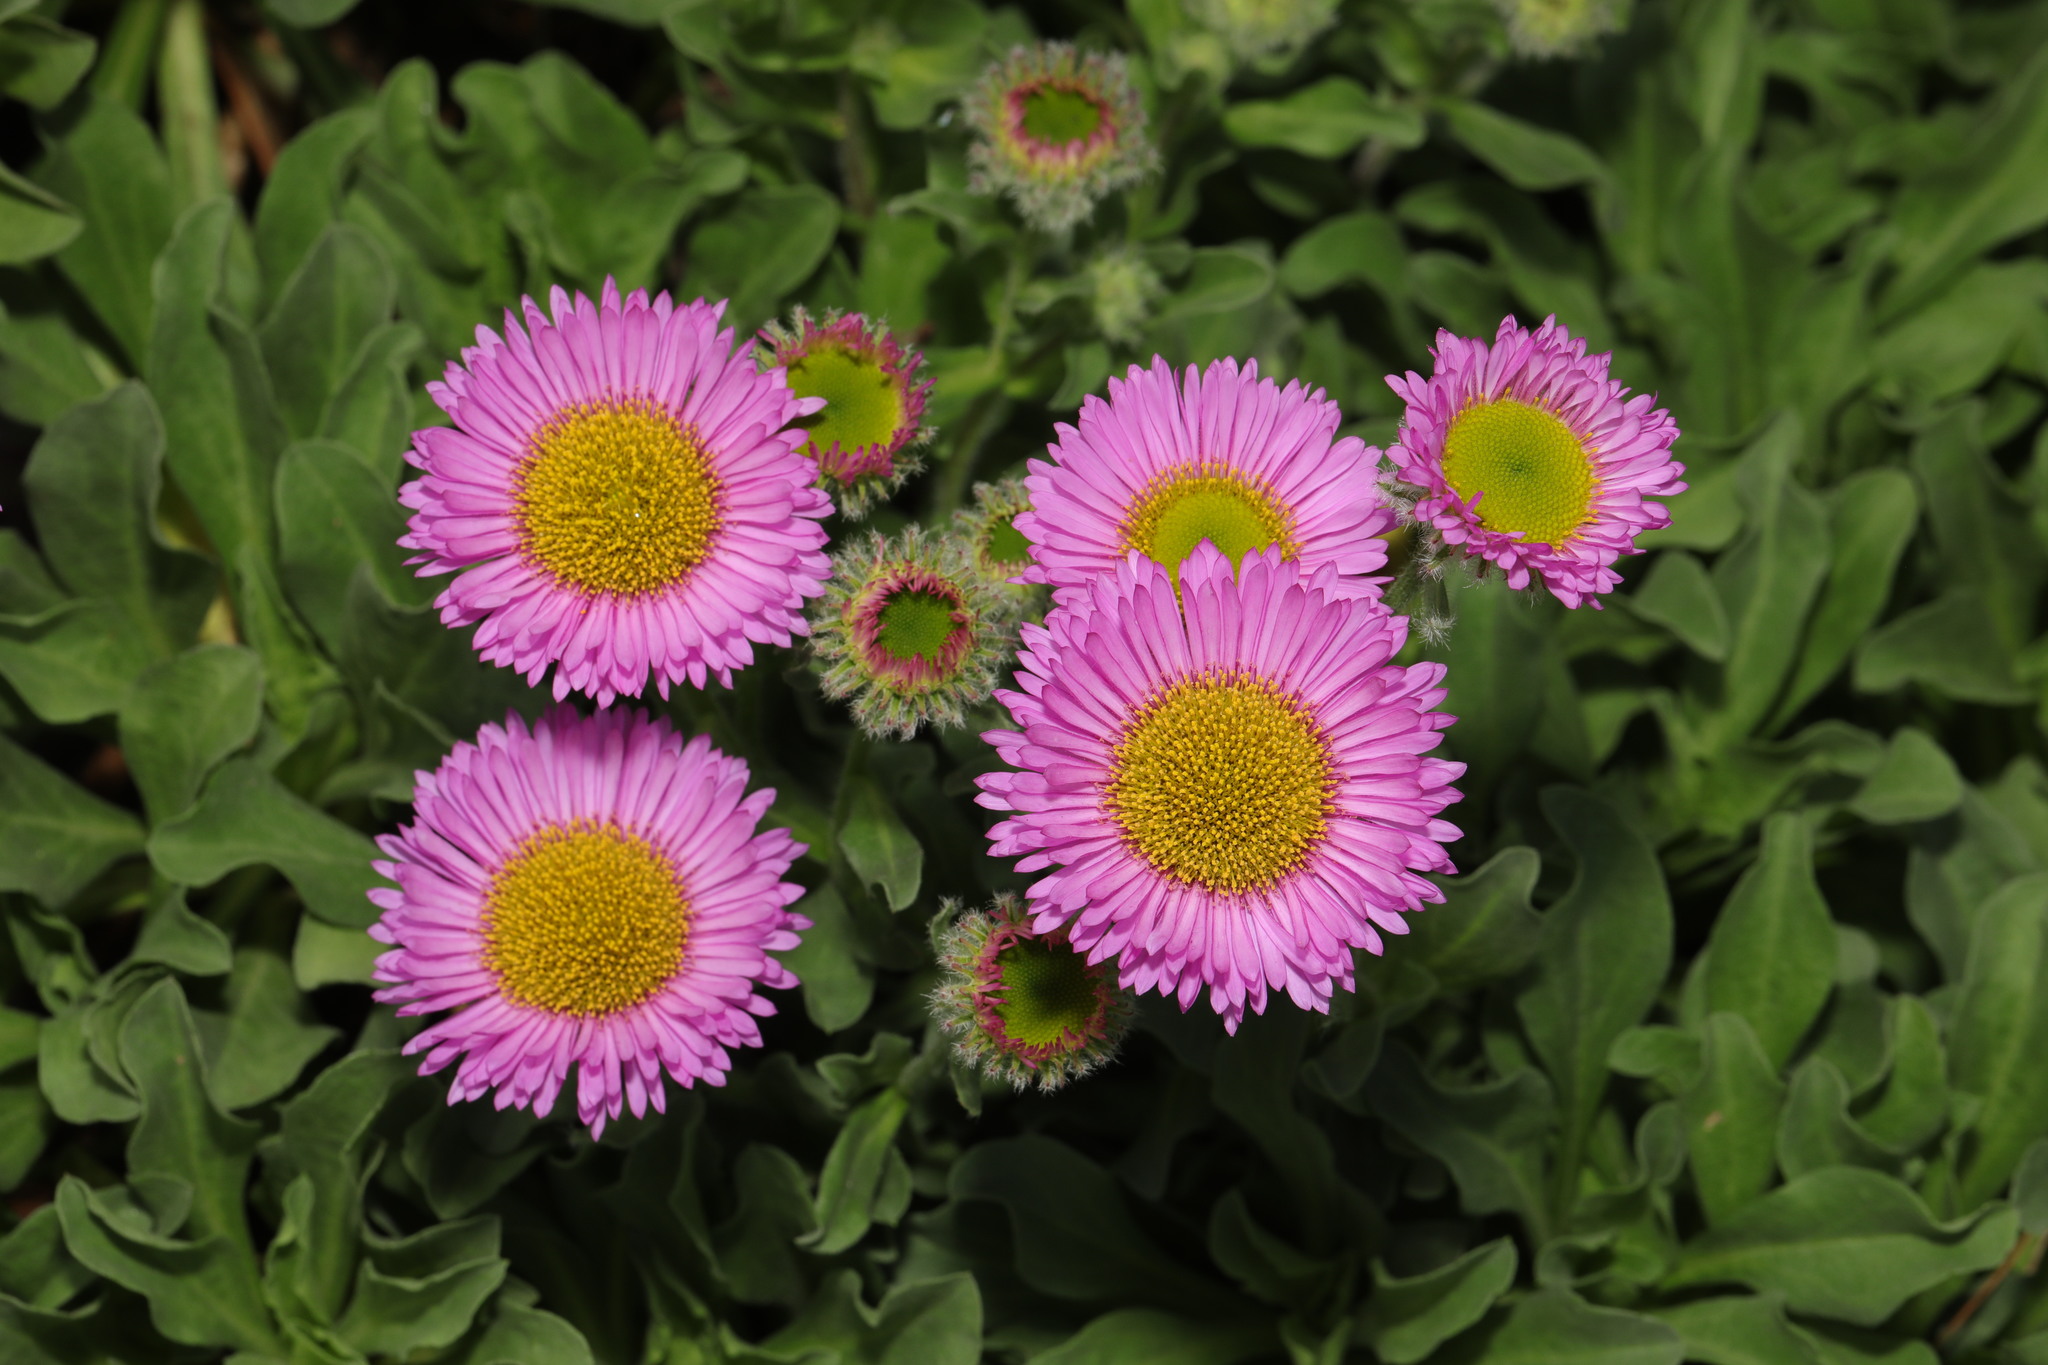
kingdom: Plantae
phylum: Tracheophyta
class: Magnoliopsida
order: Asterales
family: Asteraceae
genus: Erigeron
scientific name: Erigeron glaucus
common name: Seaside daisy
